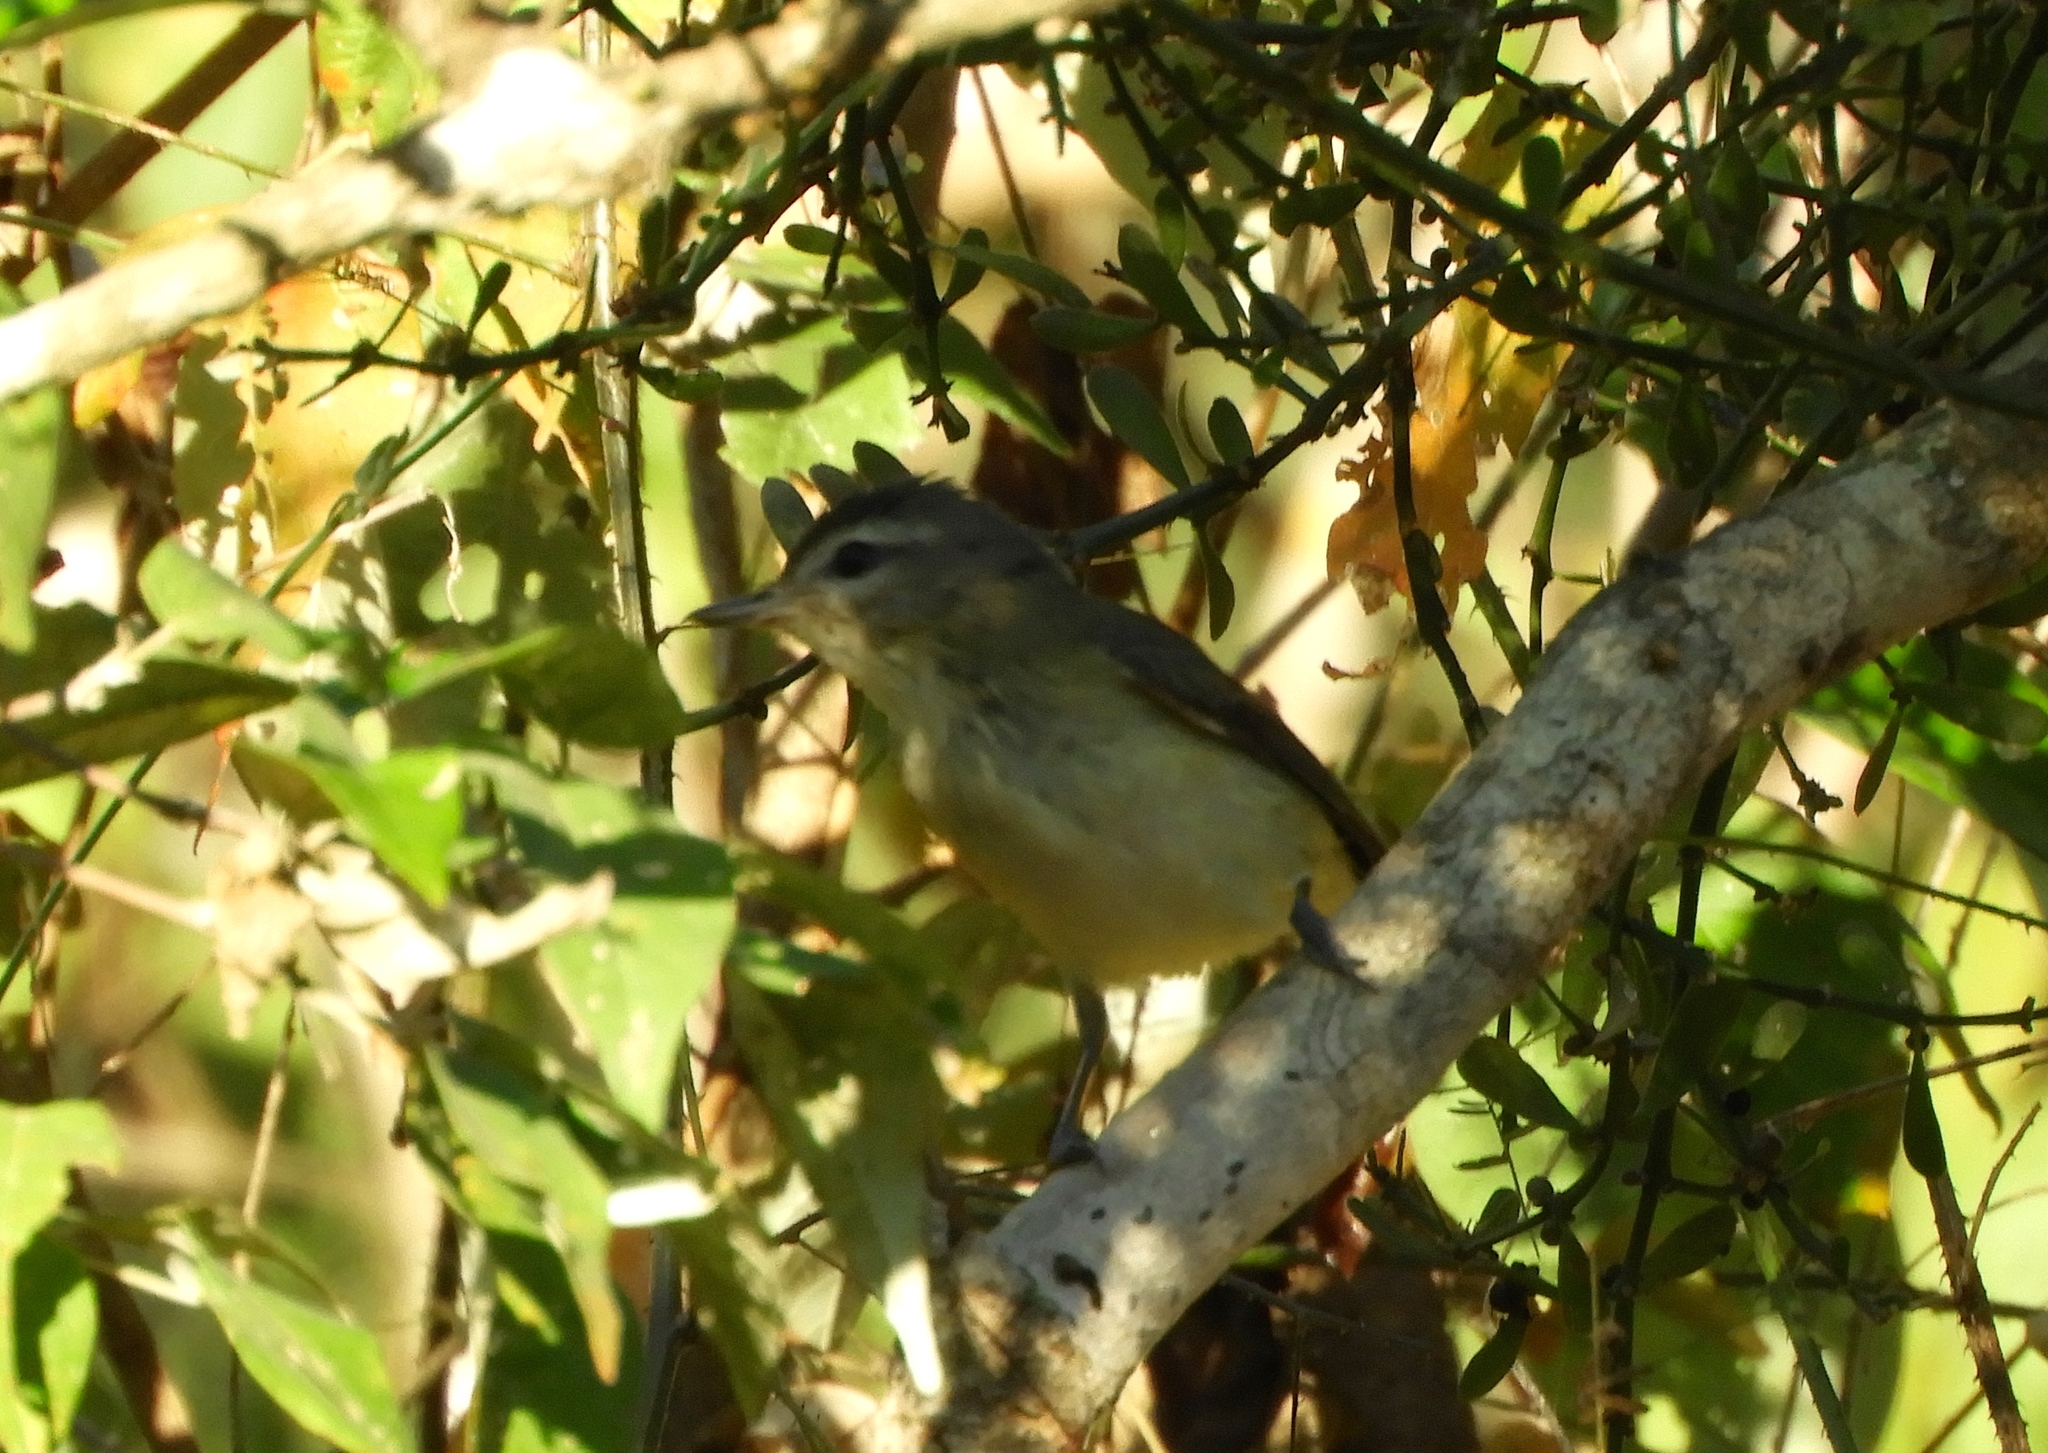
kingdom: Animalia
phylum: Chordata
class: Aves
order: Passeriformes
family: Vireonidae
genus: Vireo
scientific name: Vireo gilvus
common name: Warbling vireo
